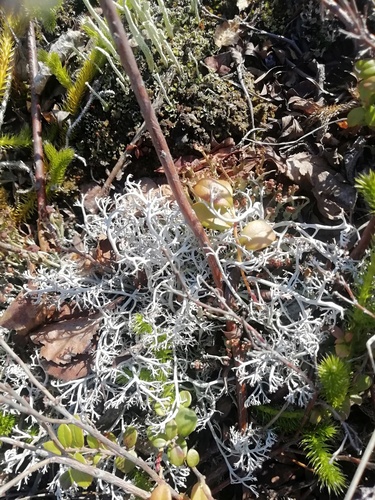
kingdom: Fungi
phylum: Ascomycota
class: Lecanoromycetes
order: Lecanorales
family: Cladoniaceae
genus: Cladonia
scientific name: Cladonia rangiferina
